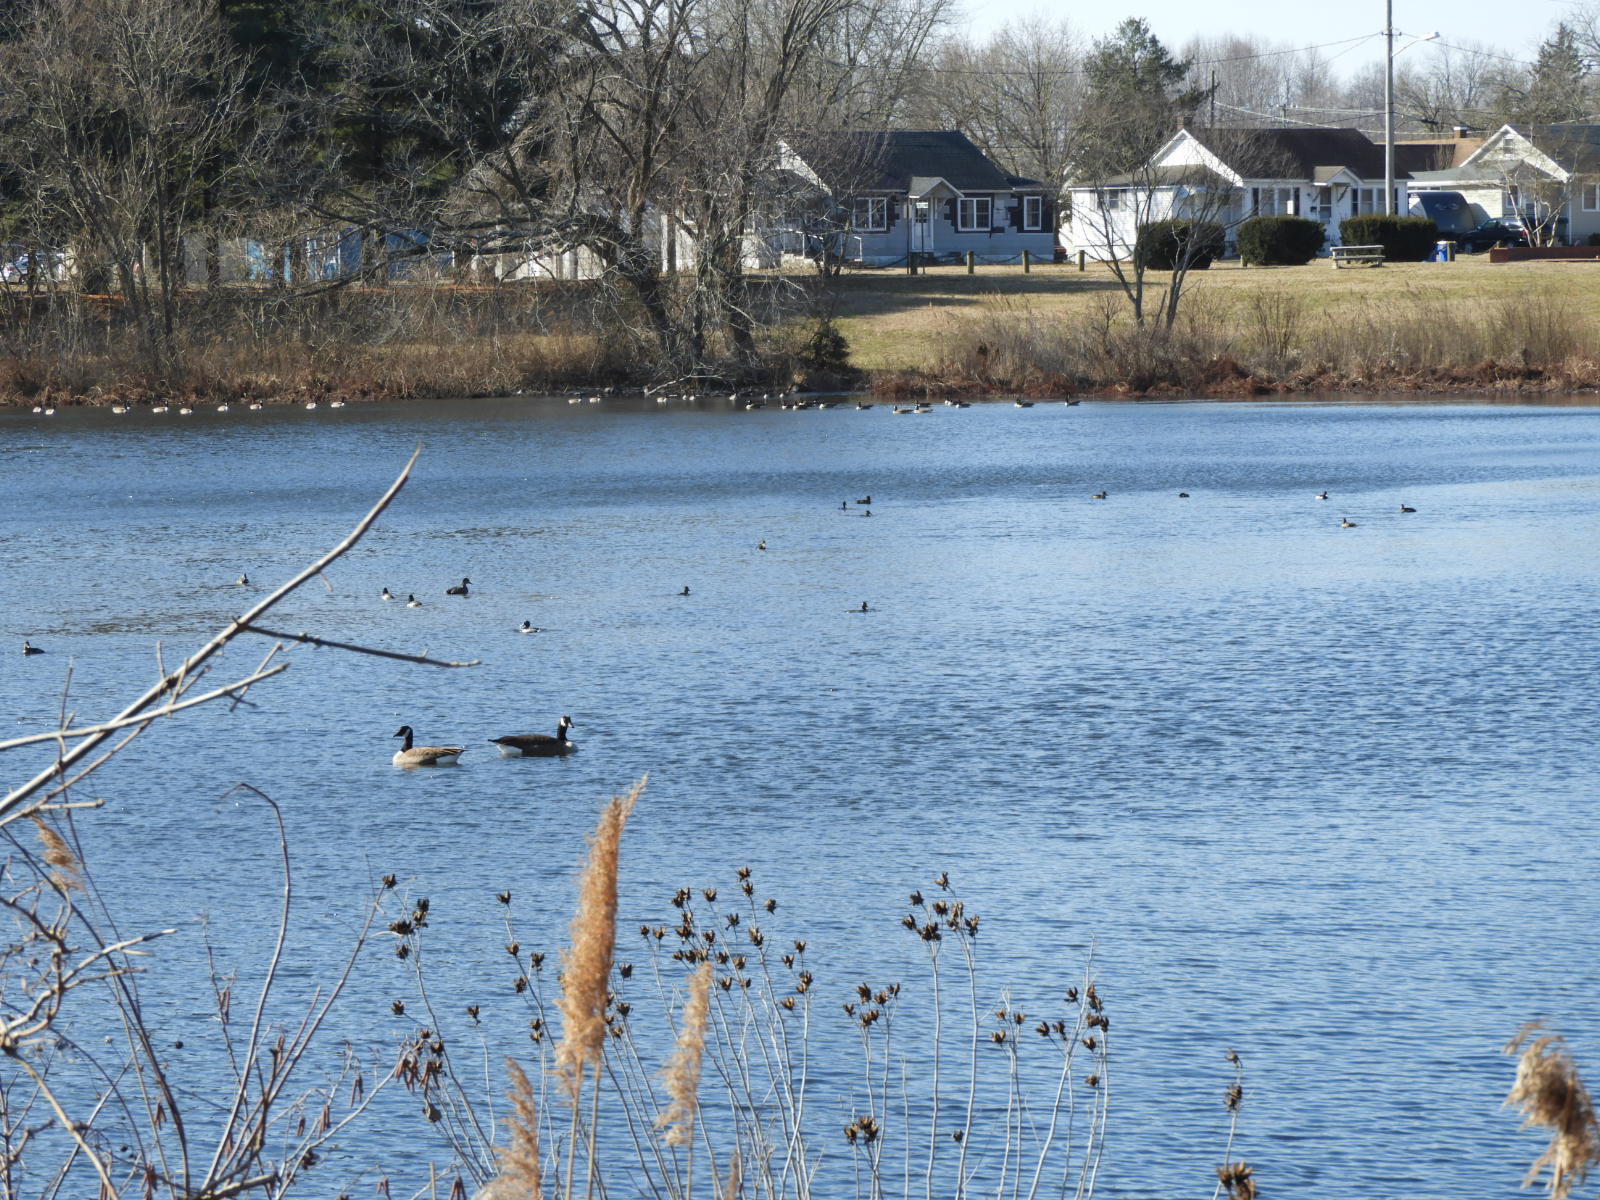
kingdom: Animalia
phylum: Chordata
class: Aves
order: Anseriformes
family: Anatidae
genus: Branta
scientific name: Branta canadensis
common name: Canada goose
